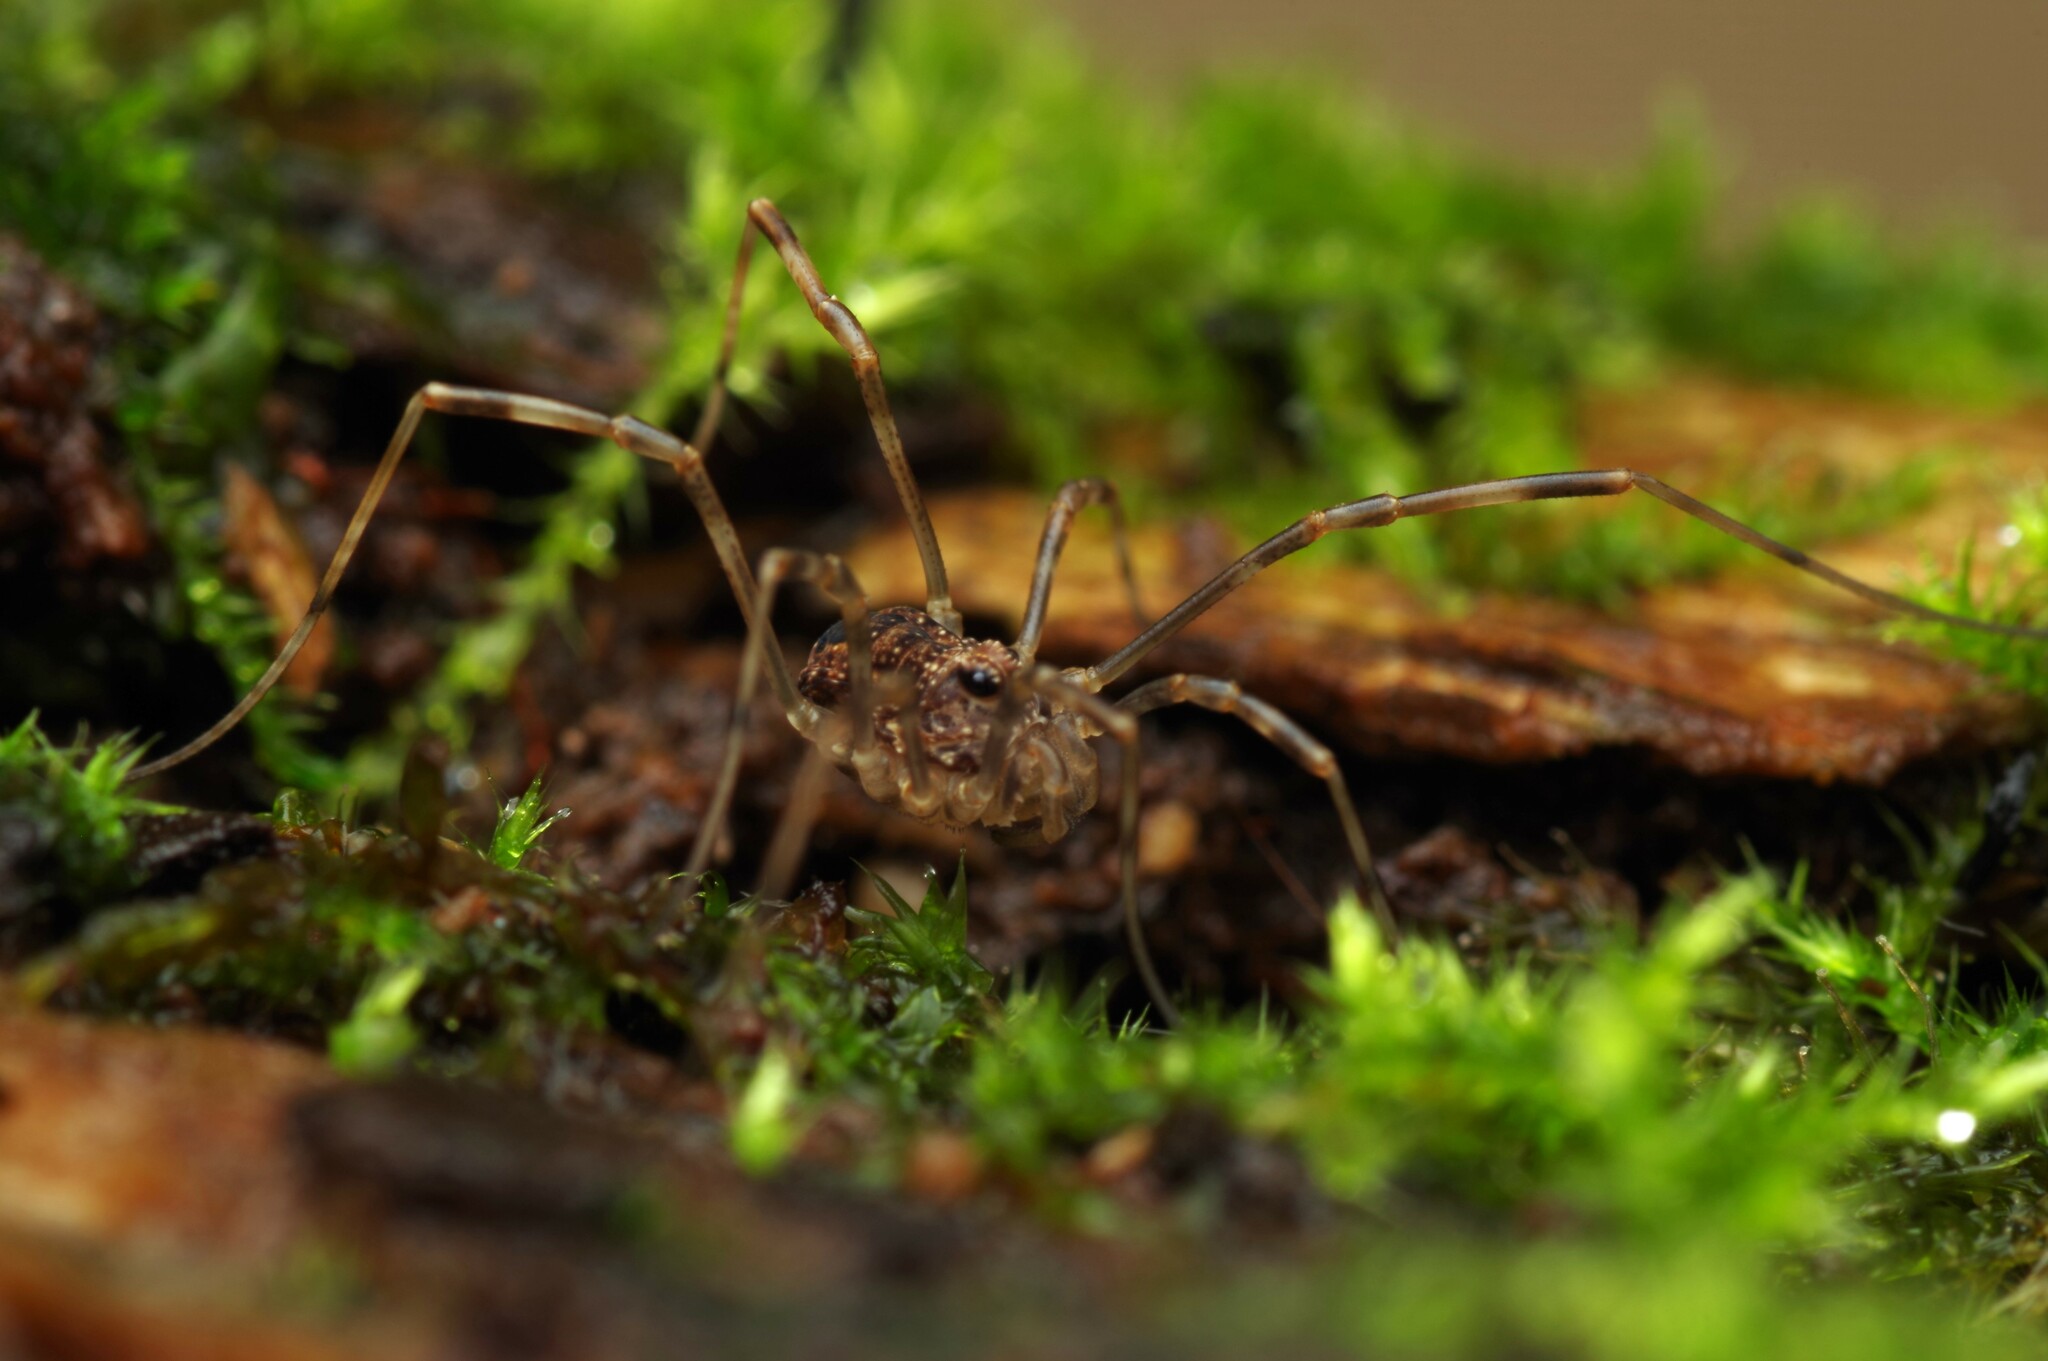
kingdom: Animalia
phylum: Arthropoda
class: Arachnida
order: Opiliones
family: Phalangiidae
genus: Rilaena
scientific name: Rilaena triangularis
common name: Spring harvestman
